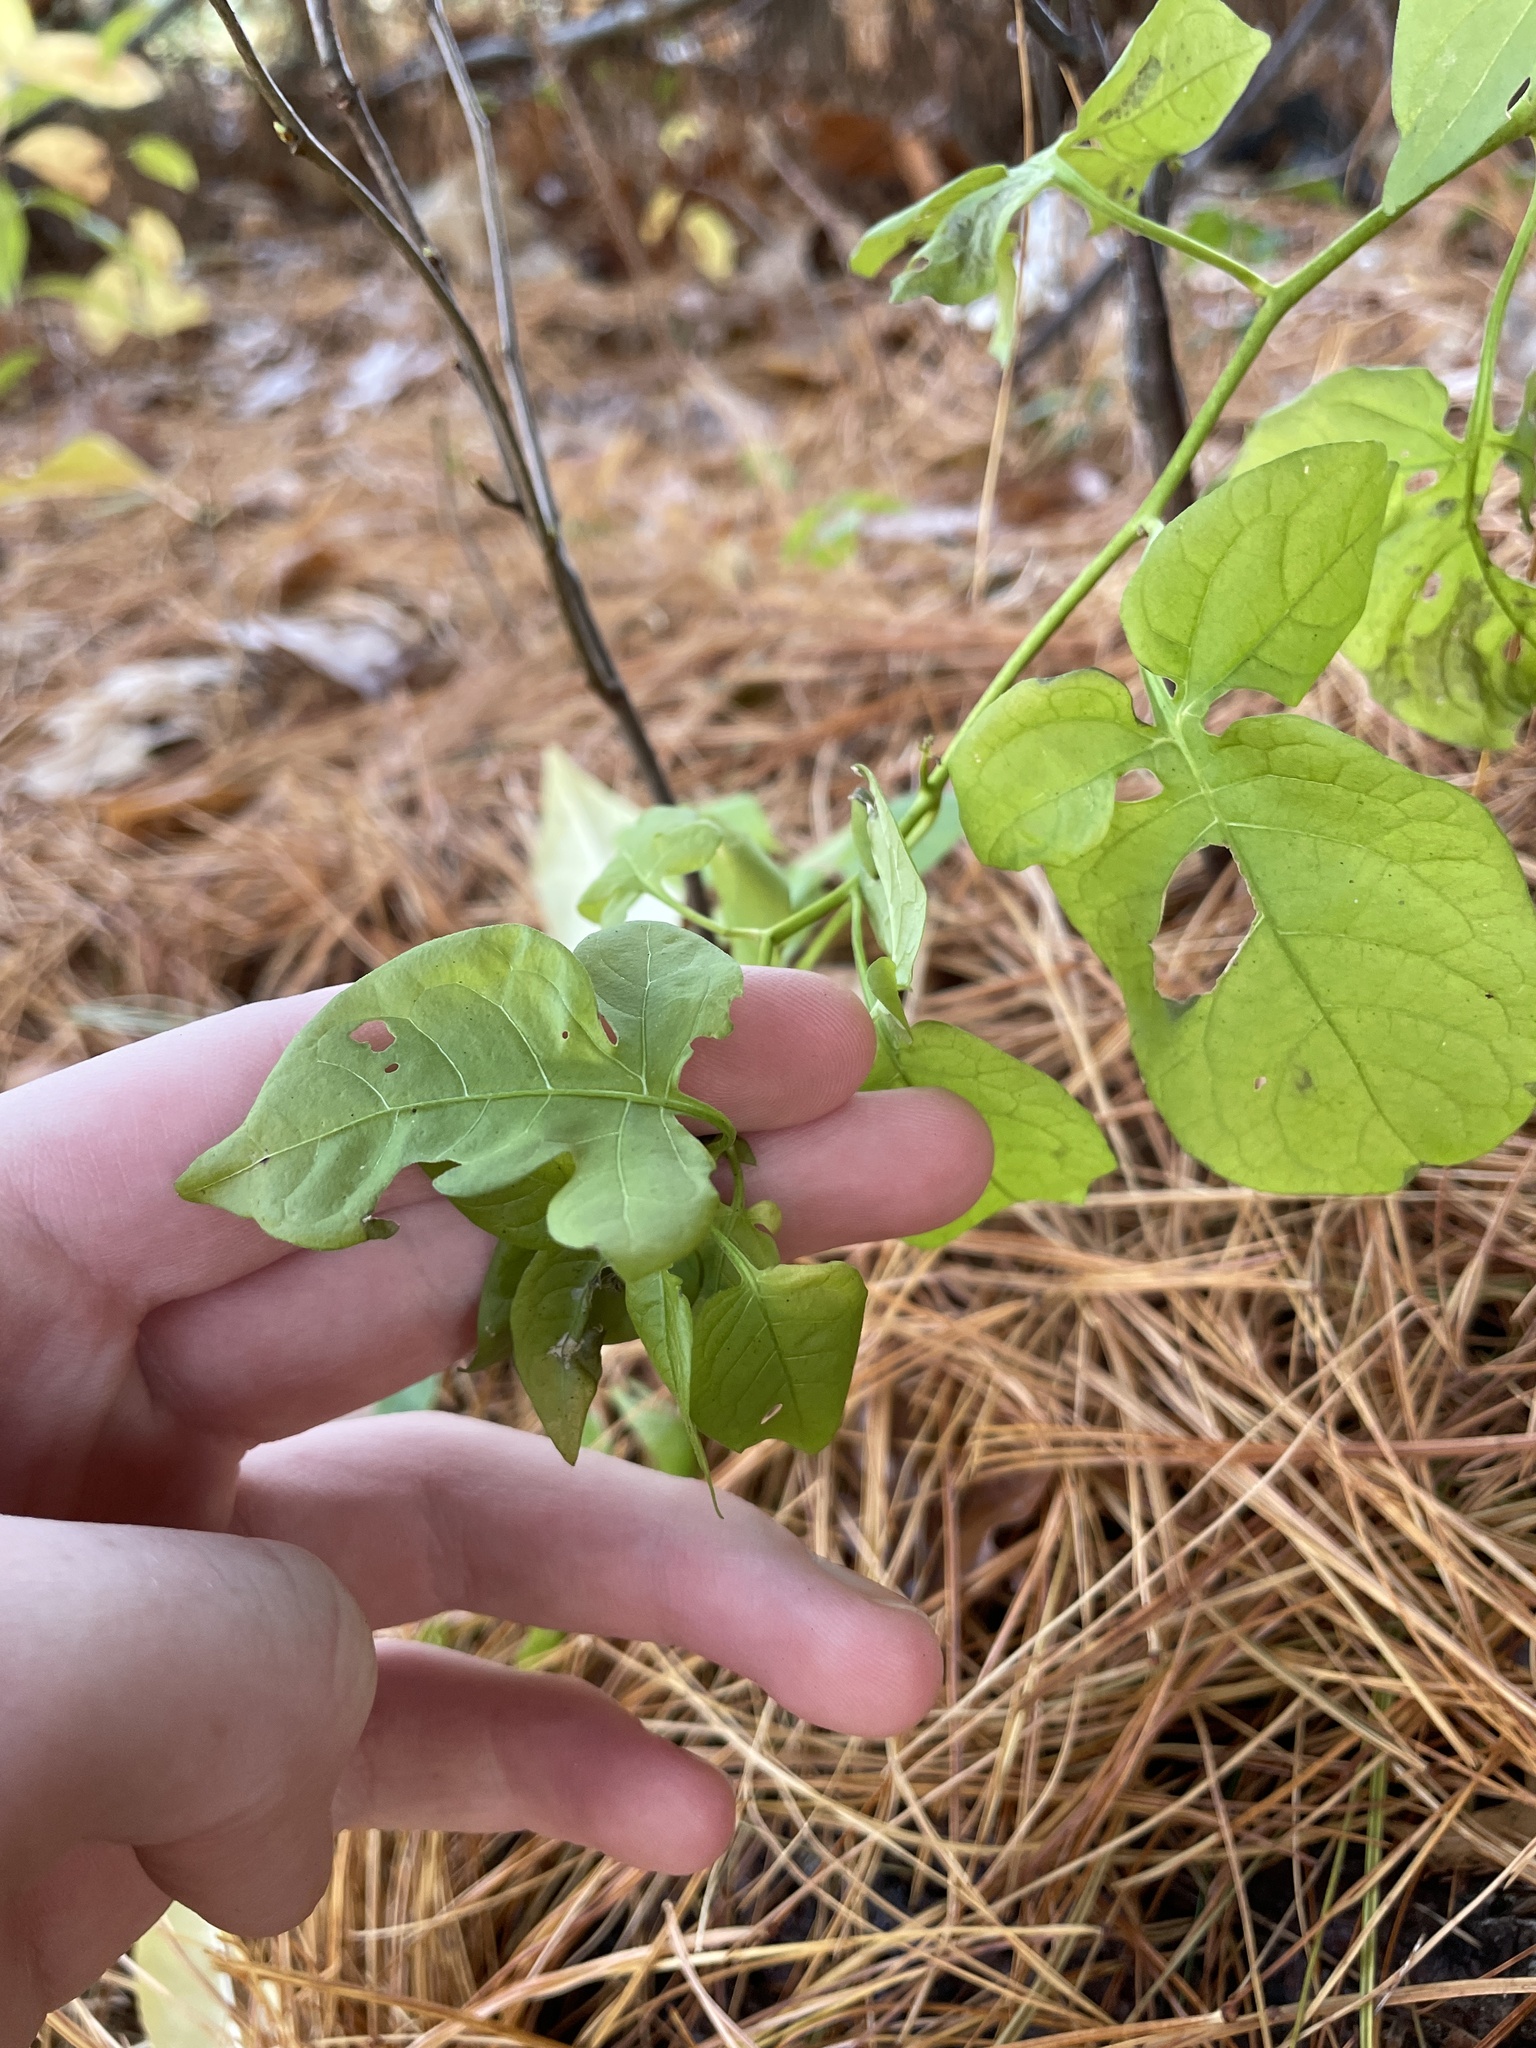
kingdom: Plantae
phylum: Tracheophyta
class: Magnoliopsida
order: Solanales
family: Solanaceae
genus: Solanum
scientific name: Solanum dulcamara
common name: Climbing nightshade
